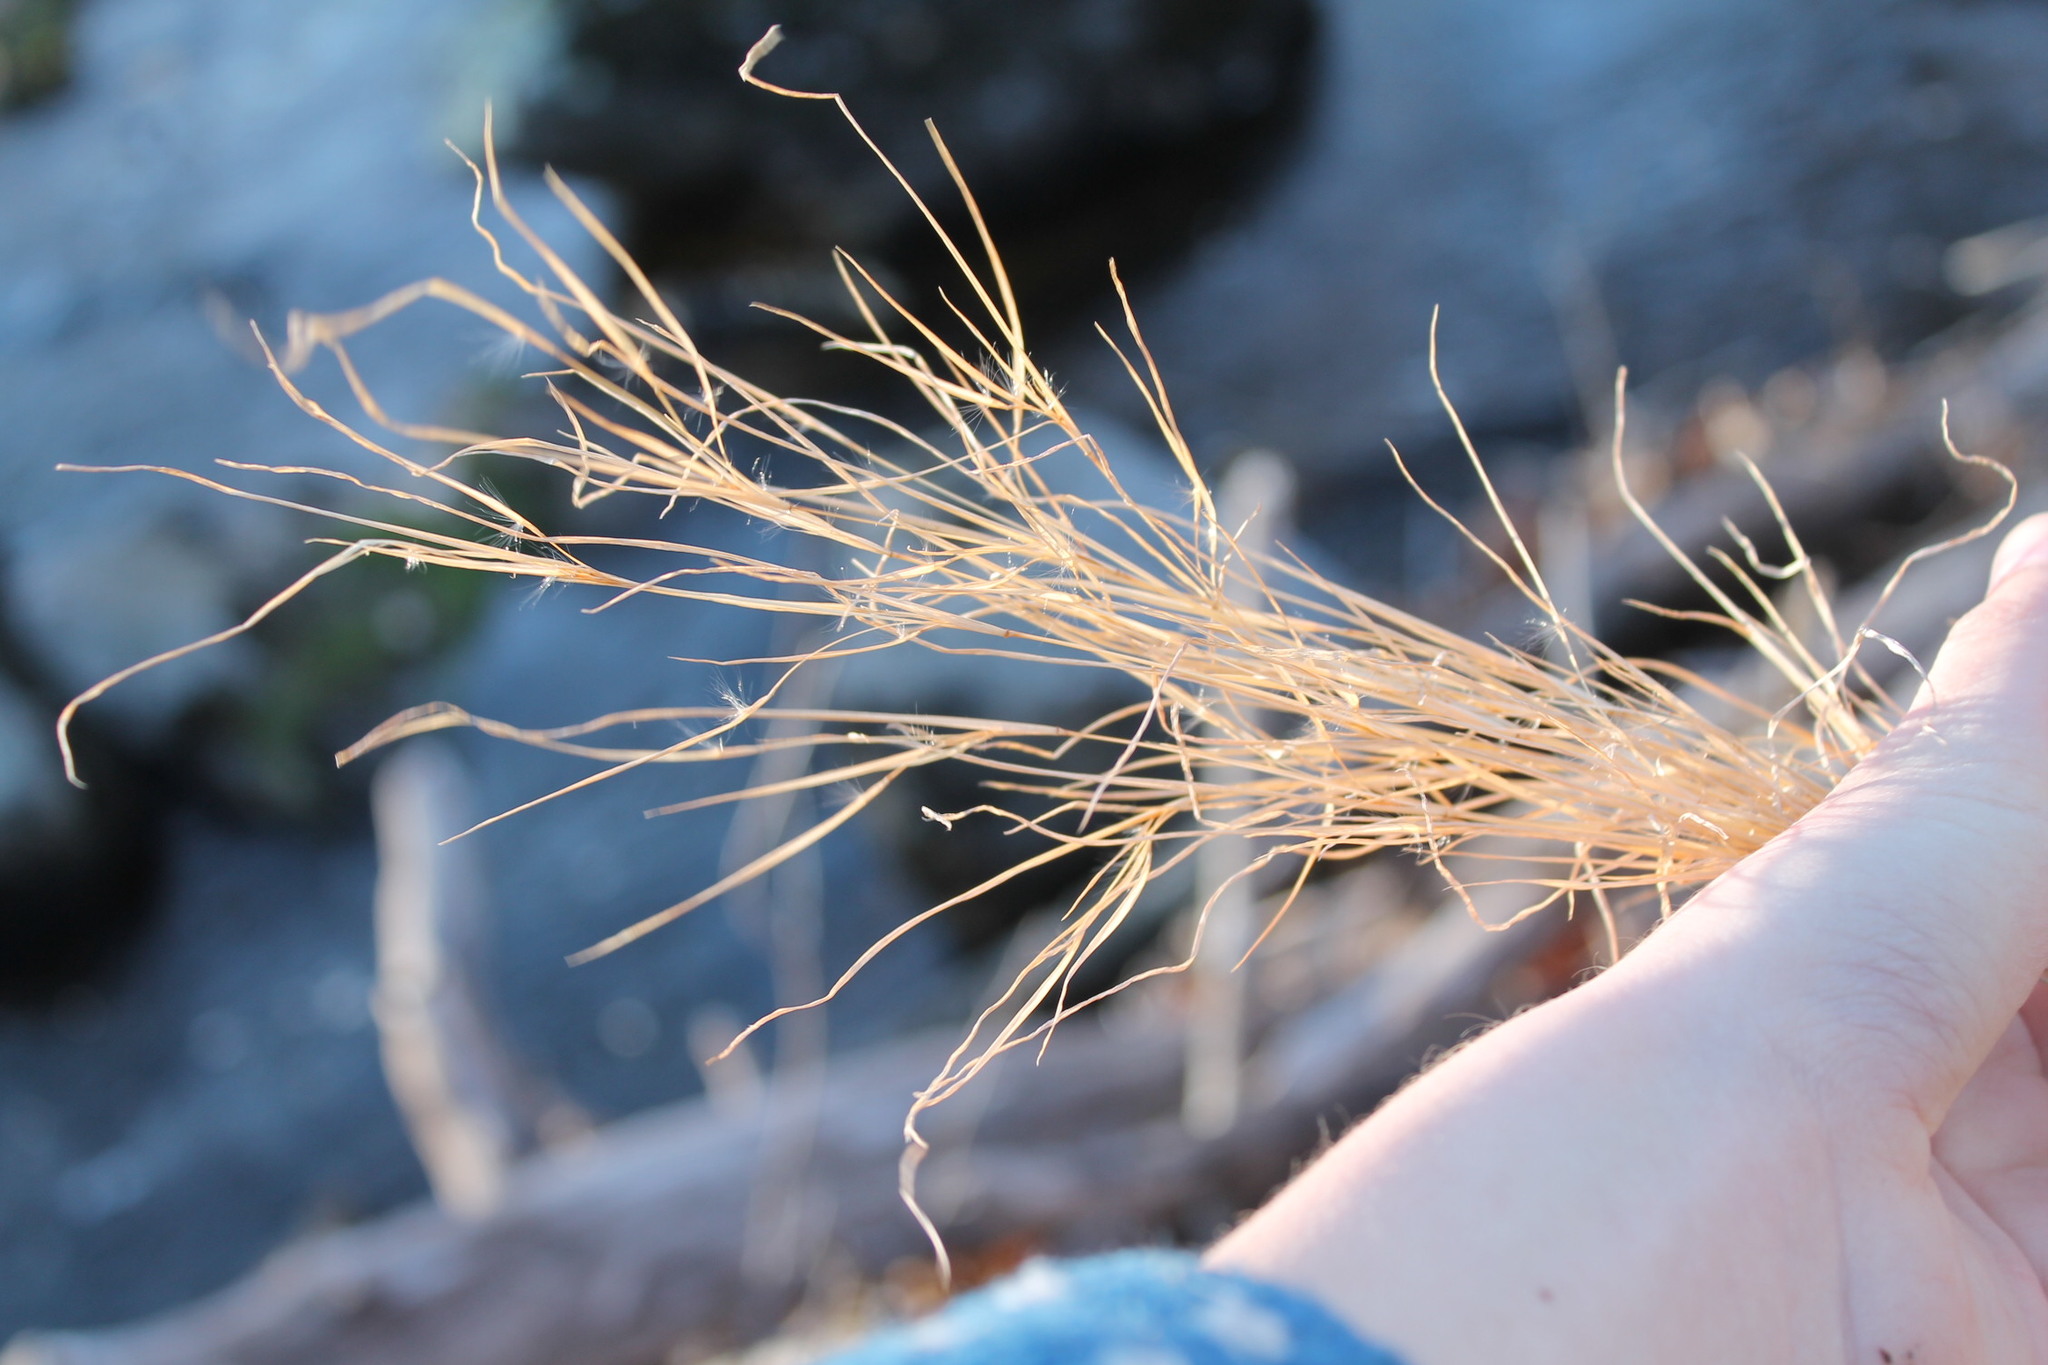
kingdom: Plantae
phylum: Tracheophyta
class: Liliopsida
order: Poales
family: Poaceae
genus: Schizachyrium
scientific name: Schizachyrium scoparium
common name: Little bluestem
